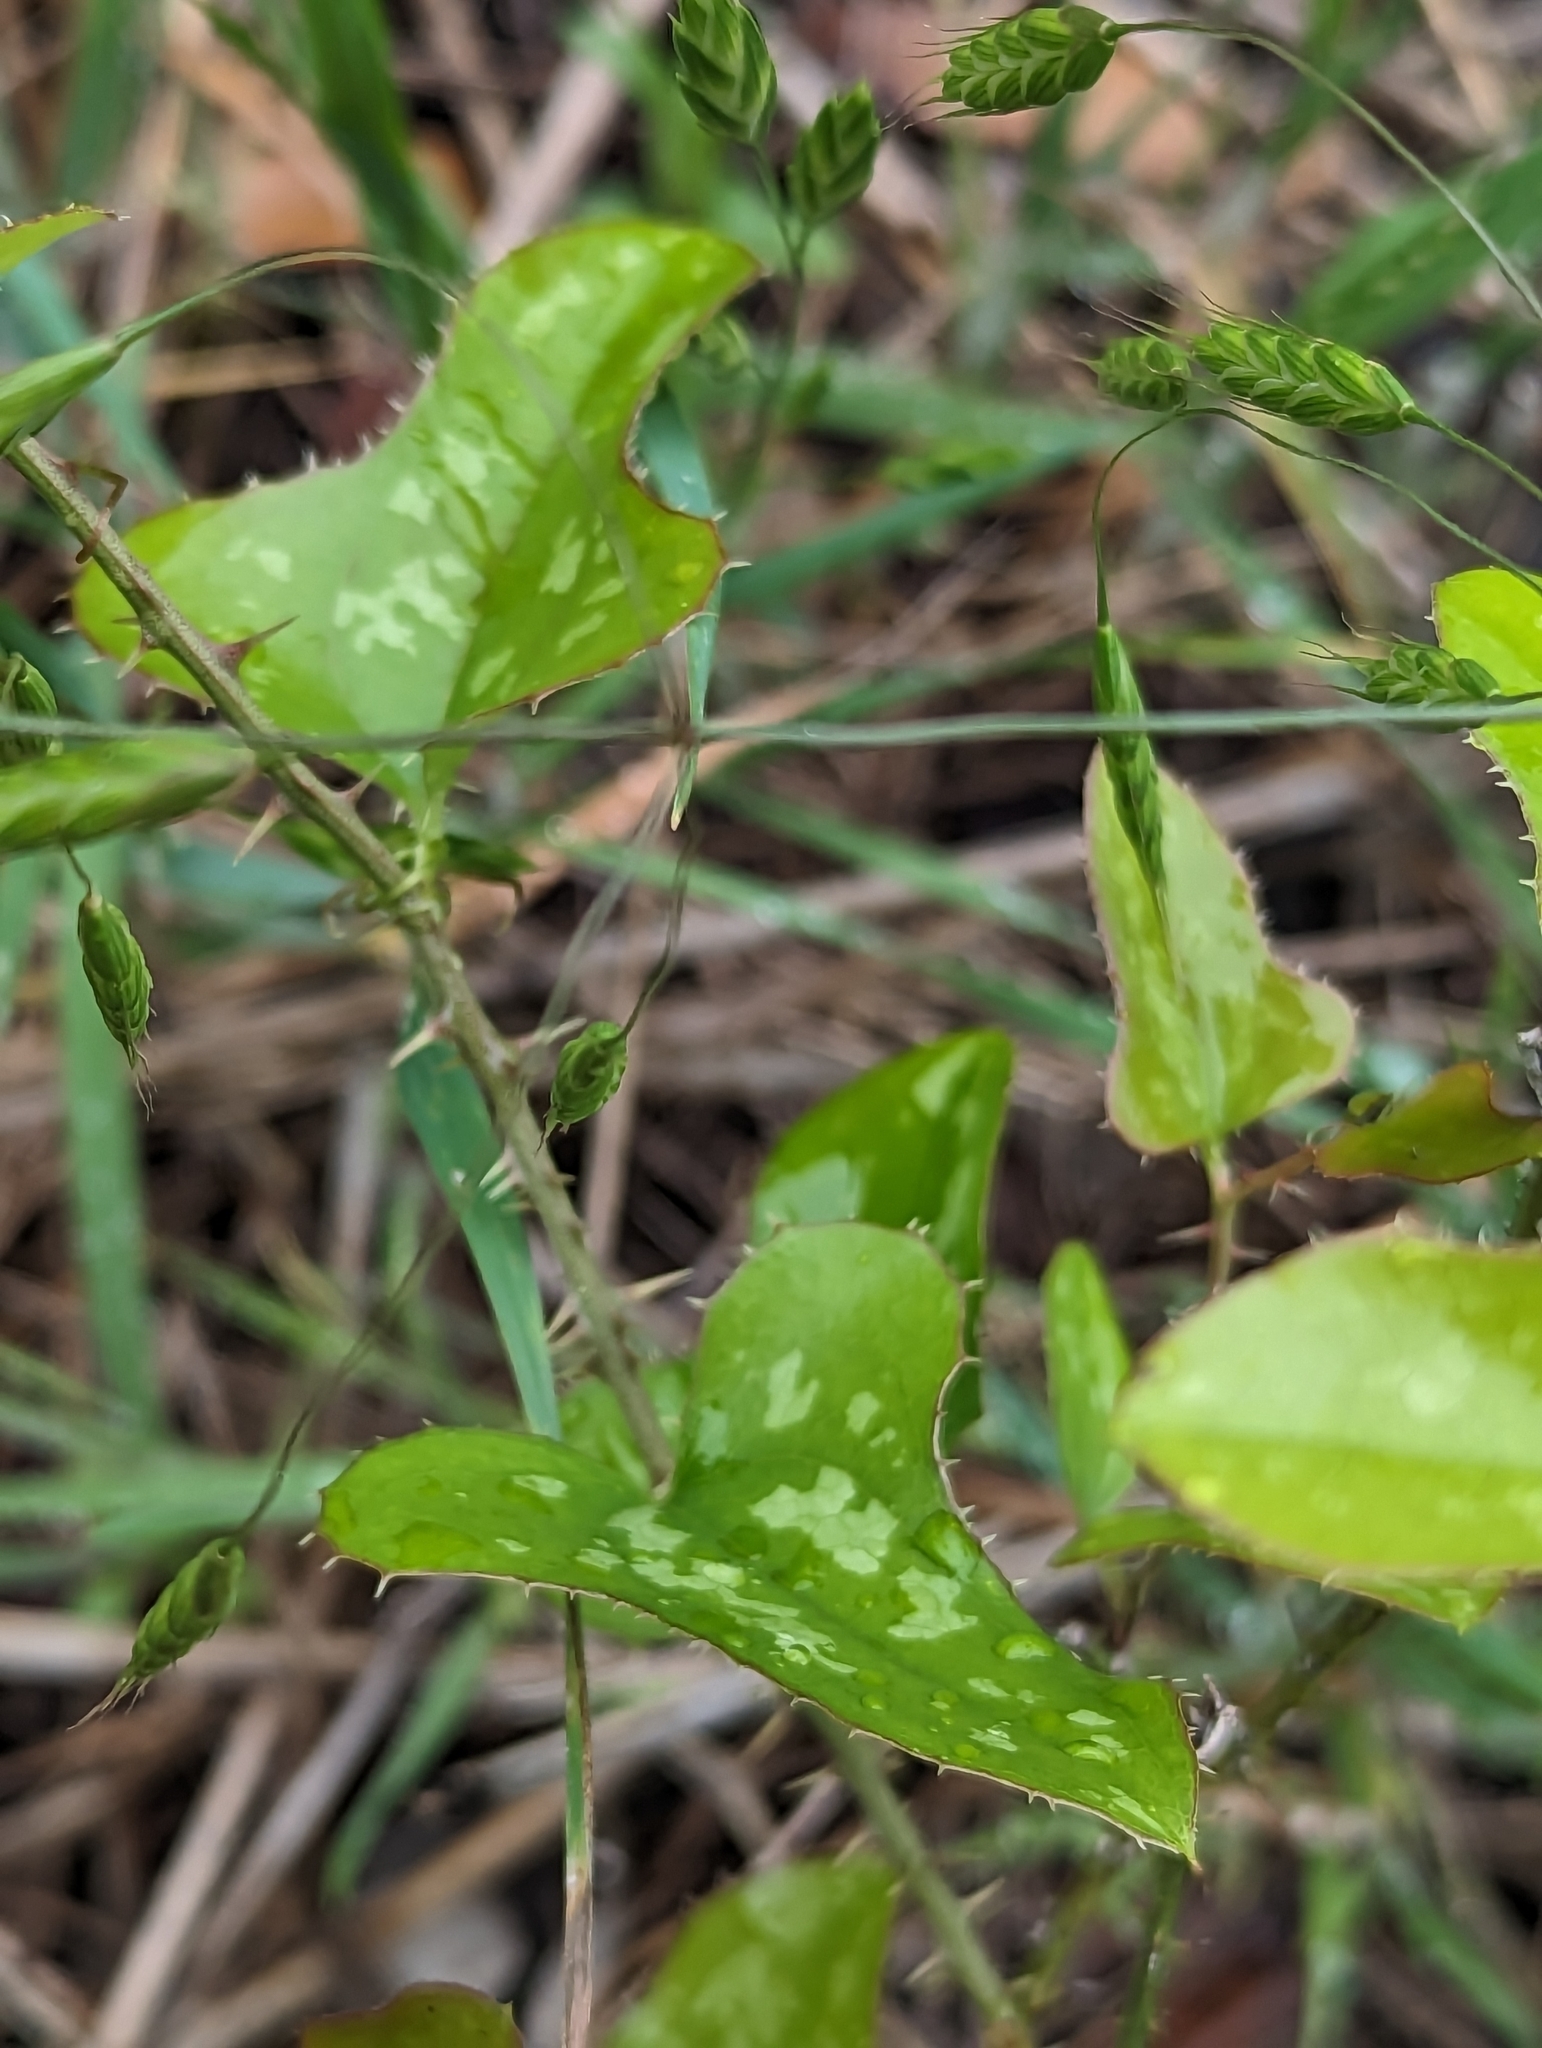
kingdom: Plantae
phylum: Tracheophyta
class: Liliopsida
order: Liliales
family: Smilacaceae
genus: Smilax
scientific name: Smilax bona-nox
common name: Catbrier
